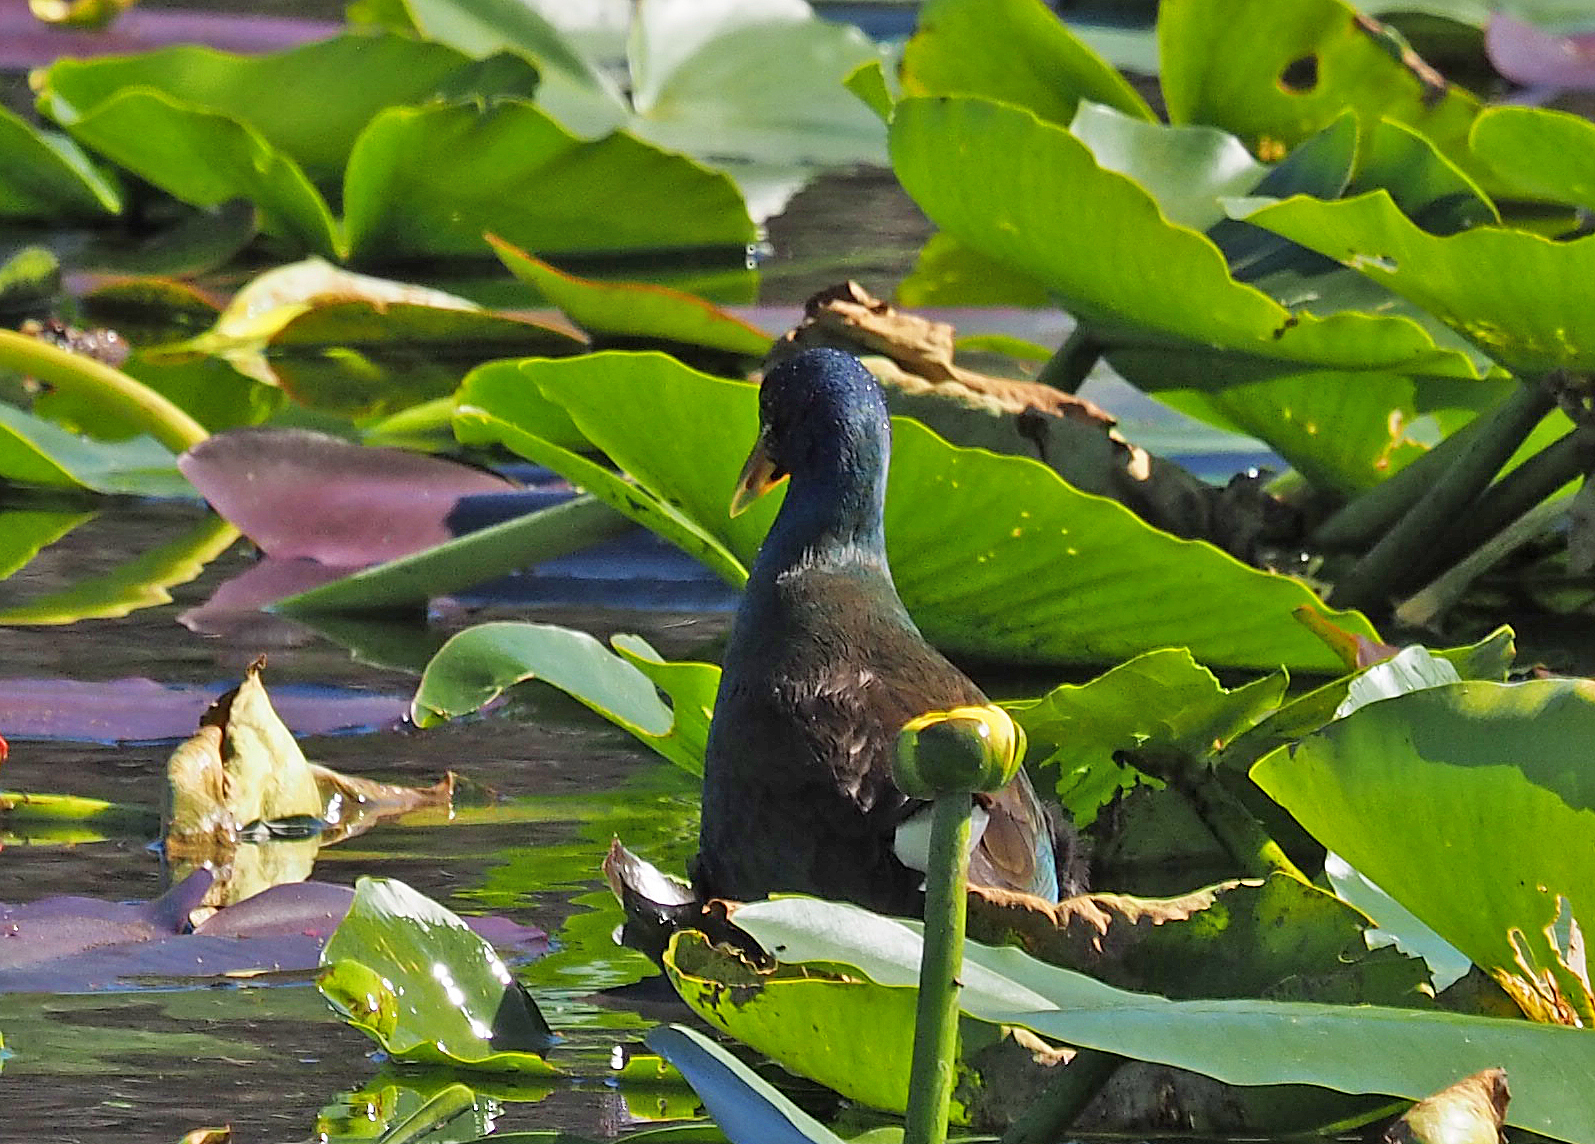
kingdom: Animalia
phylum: Chordata
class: Aves
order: Gruiformes
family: Rallidae
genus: Porphyrio
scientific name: Porphyrio martinica
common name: Purple gallinule
